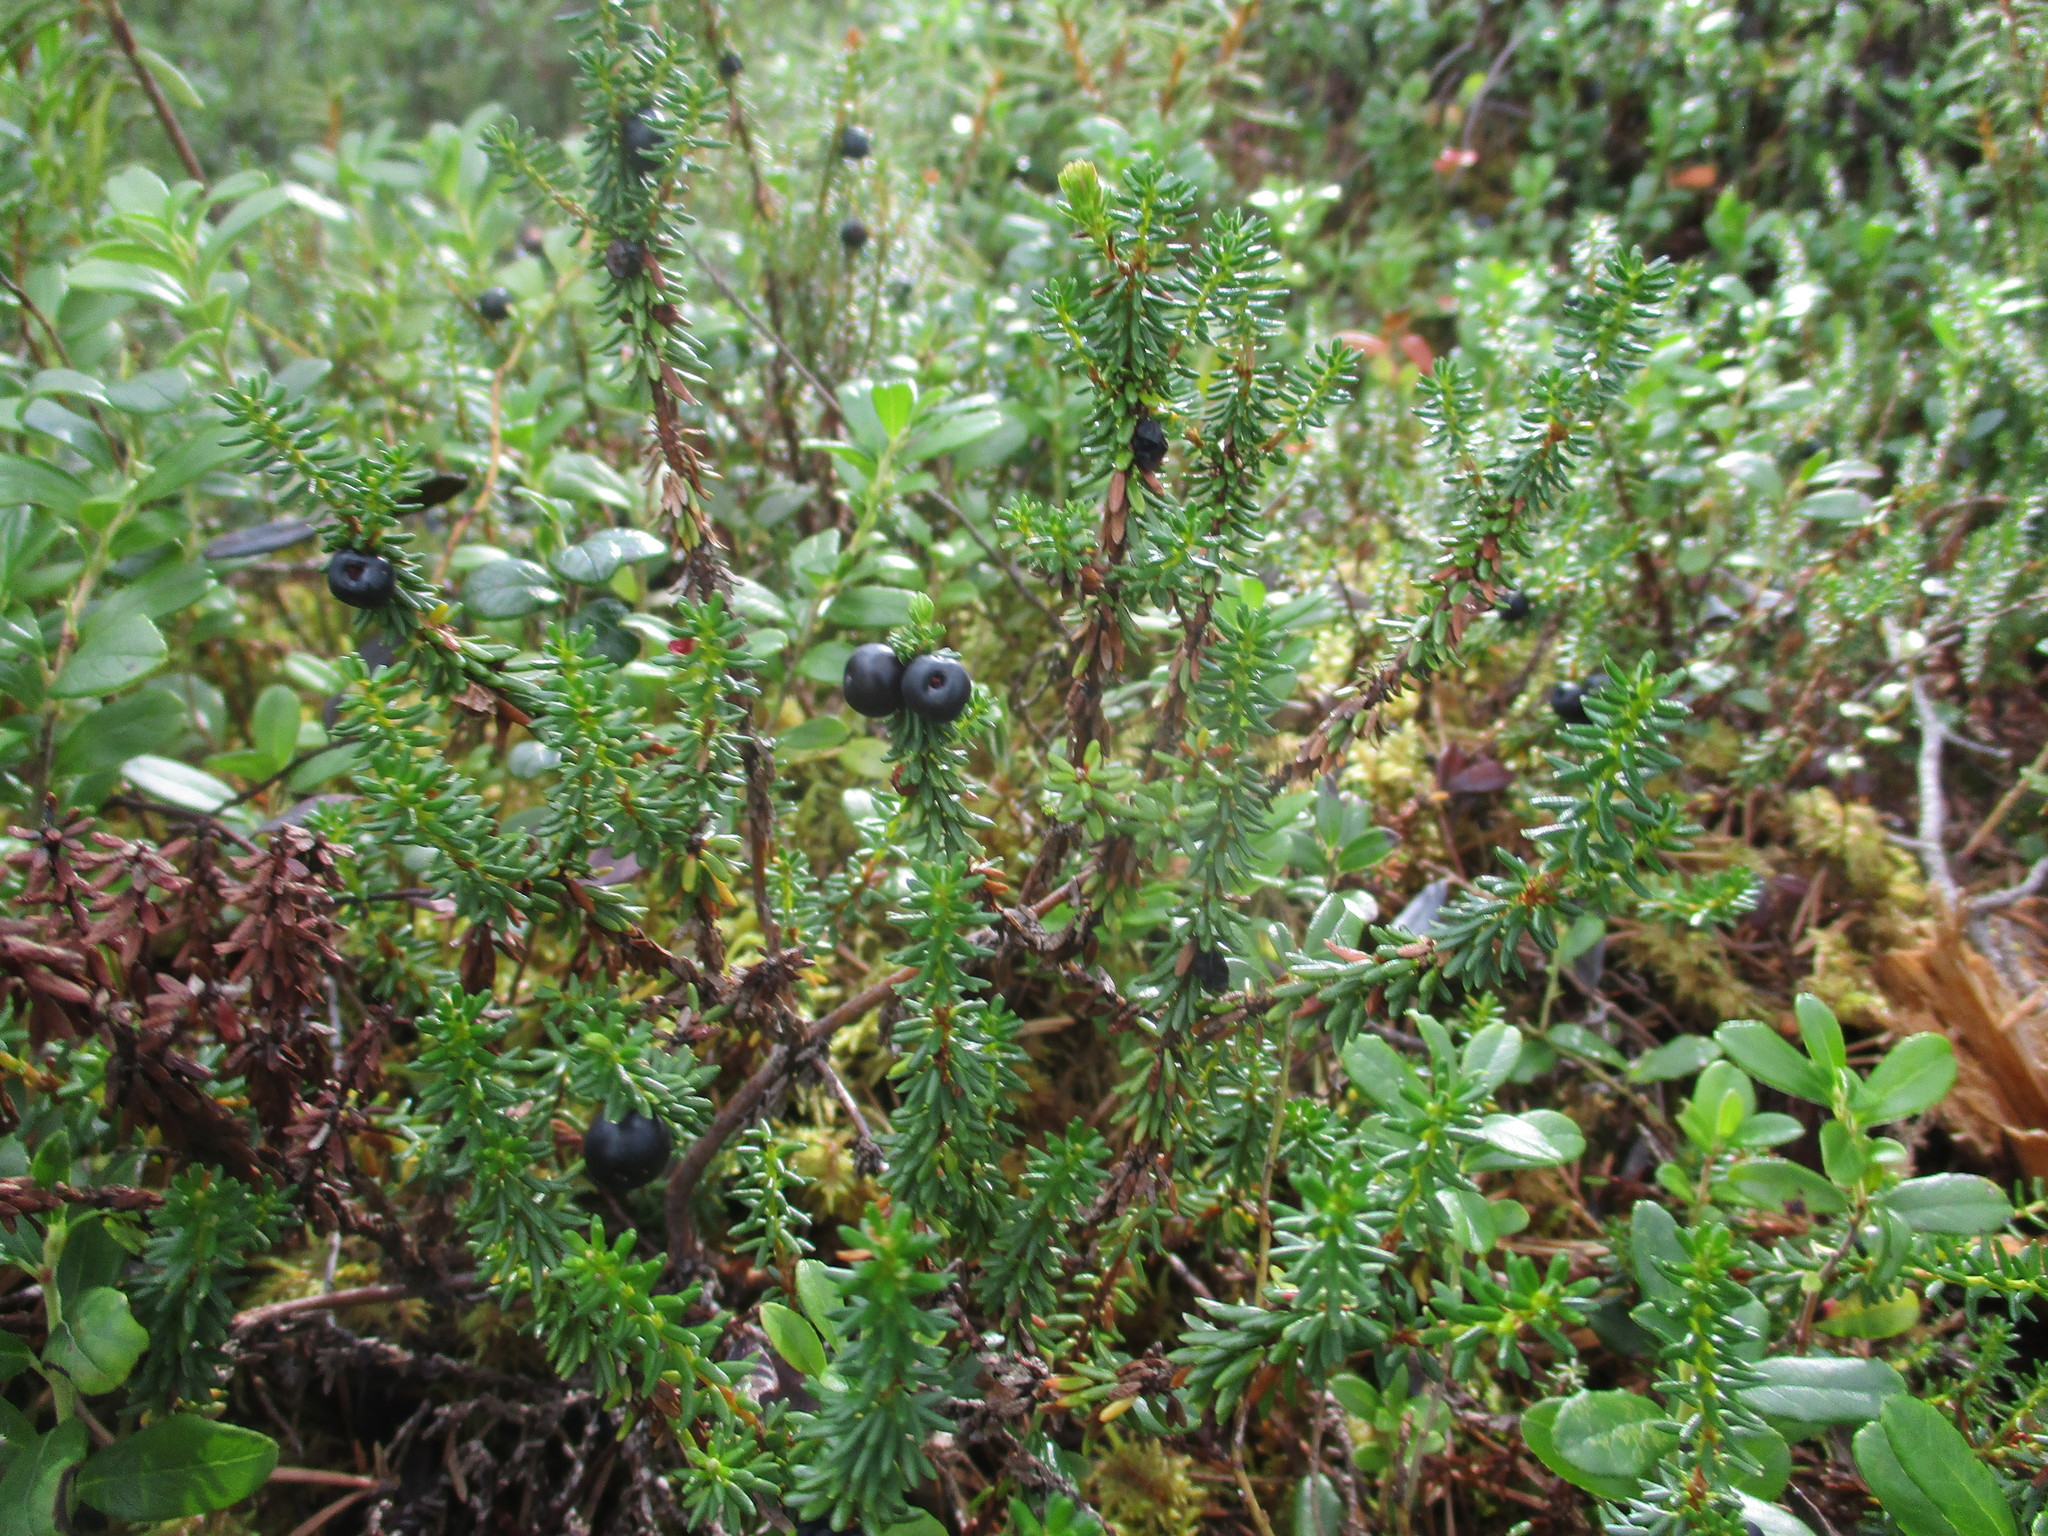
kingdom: Plantae
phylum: Tracheophyta
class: Magnoliopsida
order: Ericales
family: Ericaceae
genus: Empetrum
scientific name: Empetrum nigrum
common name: Black crowberry
